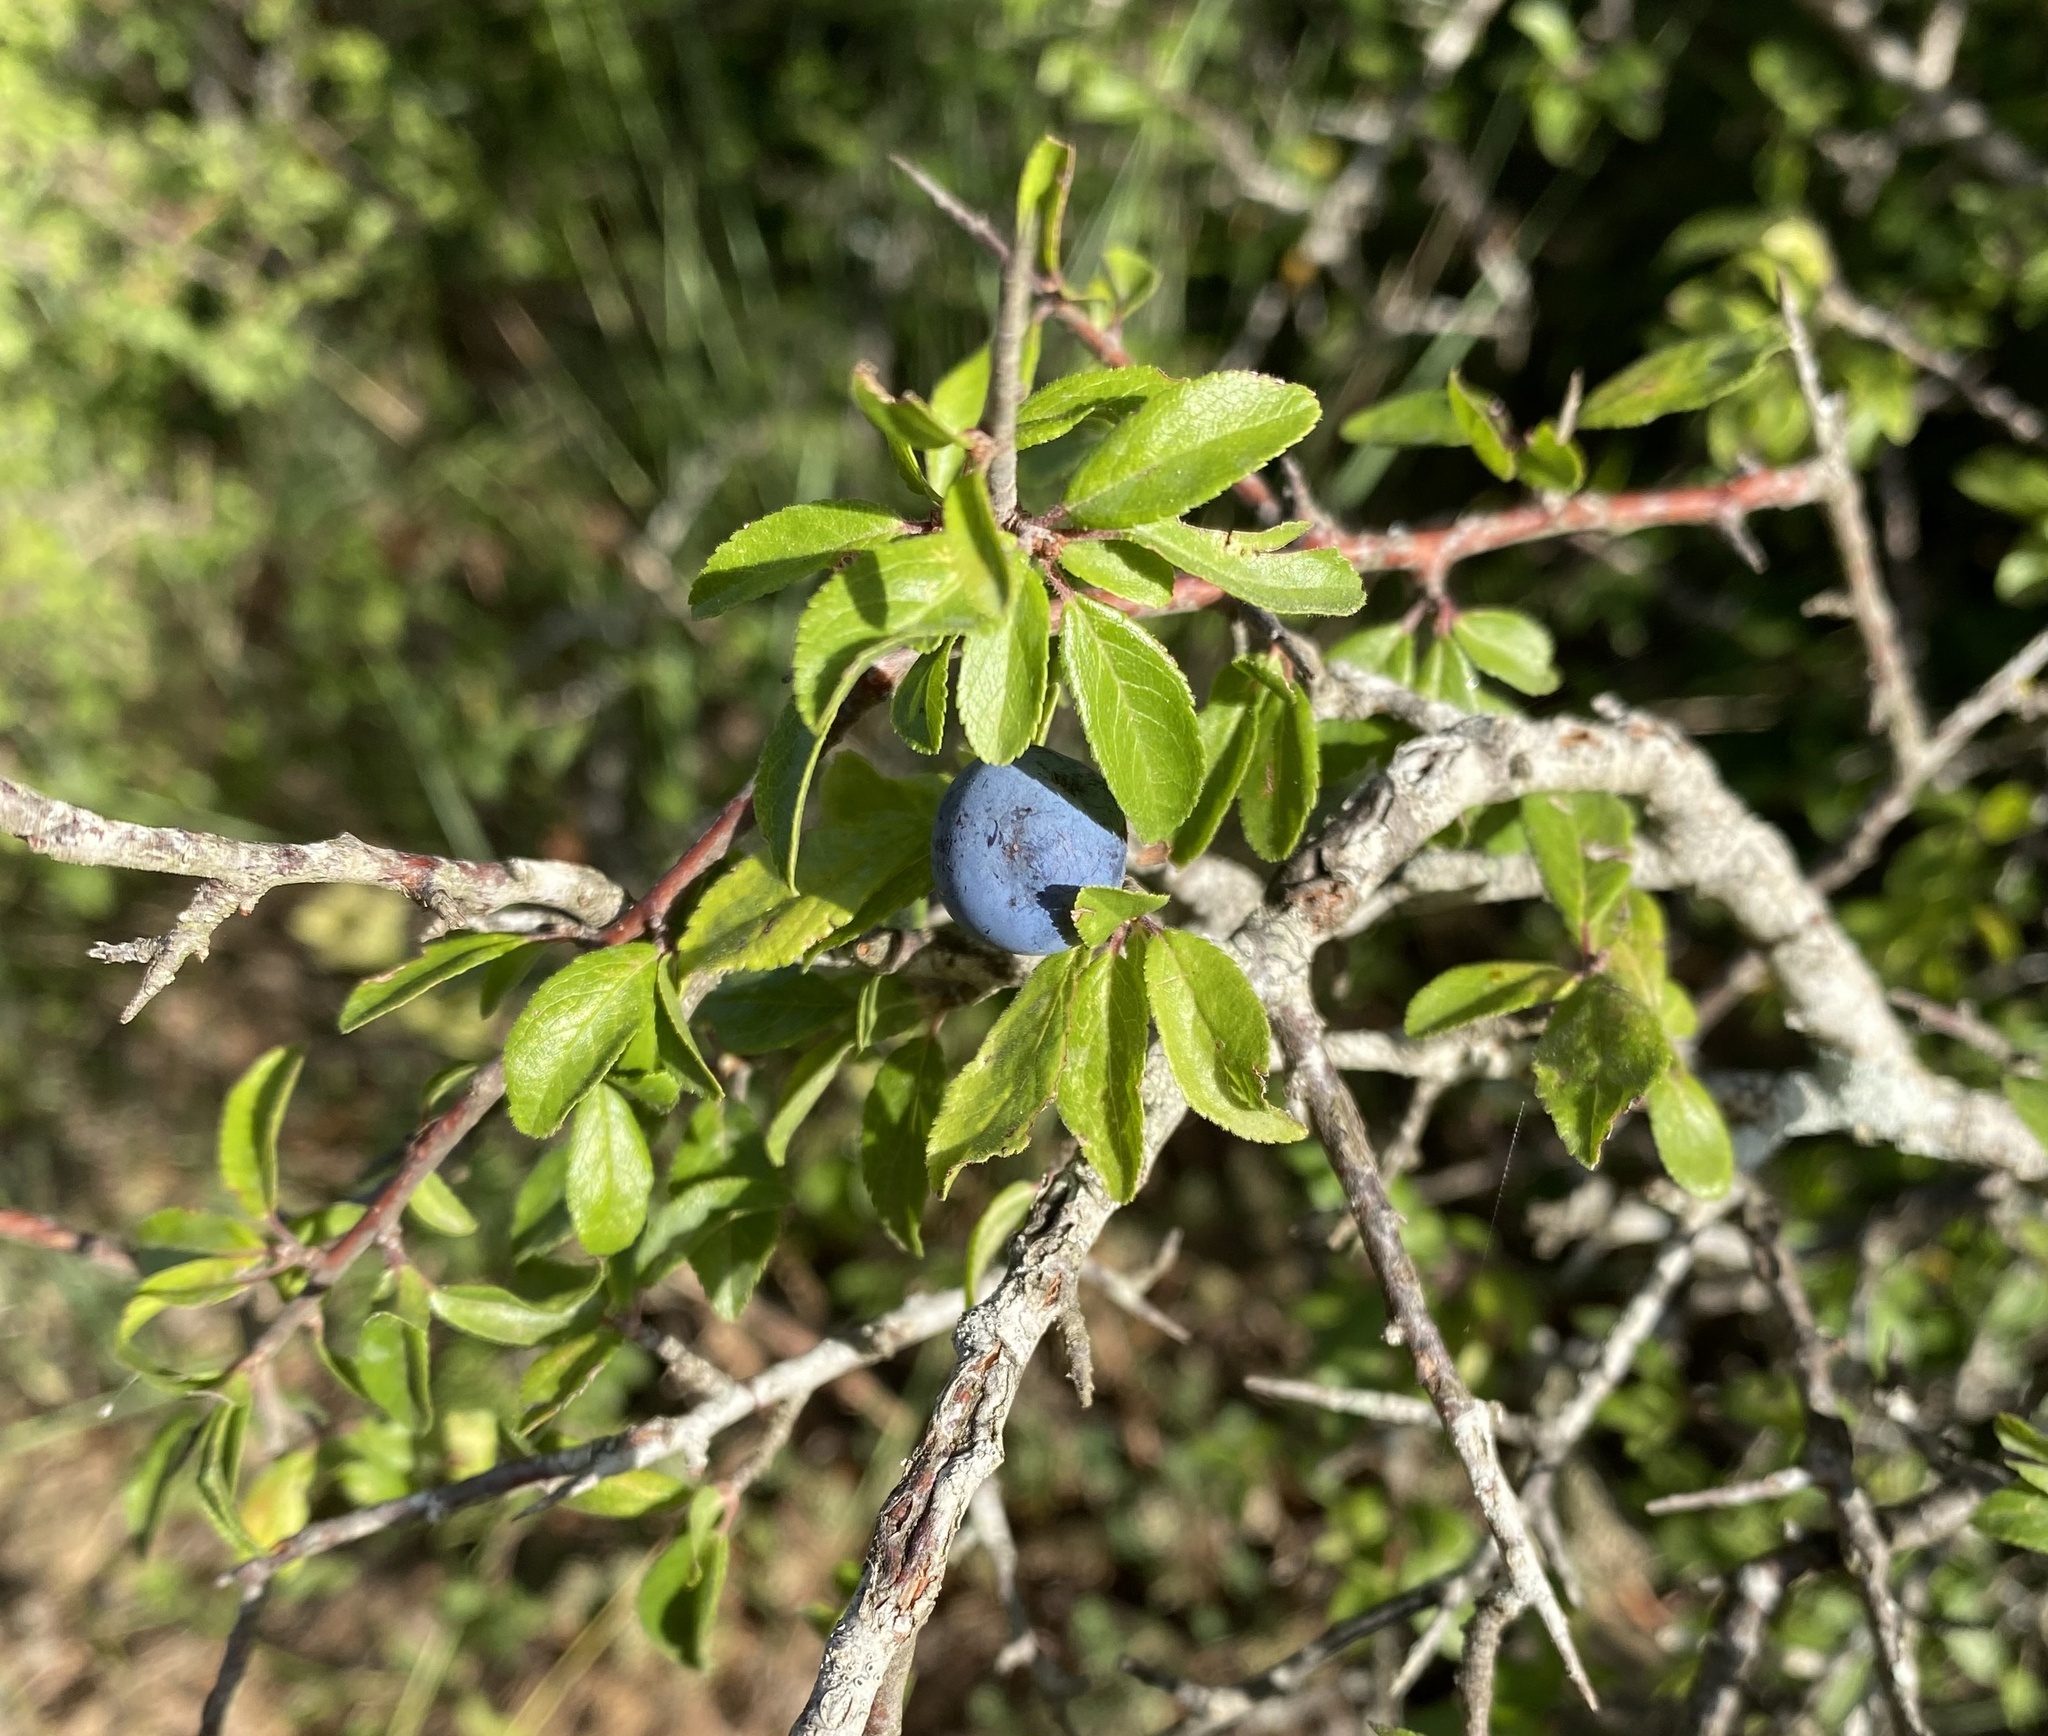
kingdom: Plantae
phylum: Tracheophyta
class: Magnoliopsida
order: Rosales
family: Rosaceae
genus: Prunus
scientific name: Prunus spinosa
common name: Blackthorn
